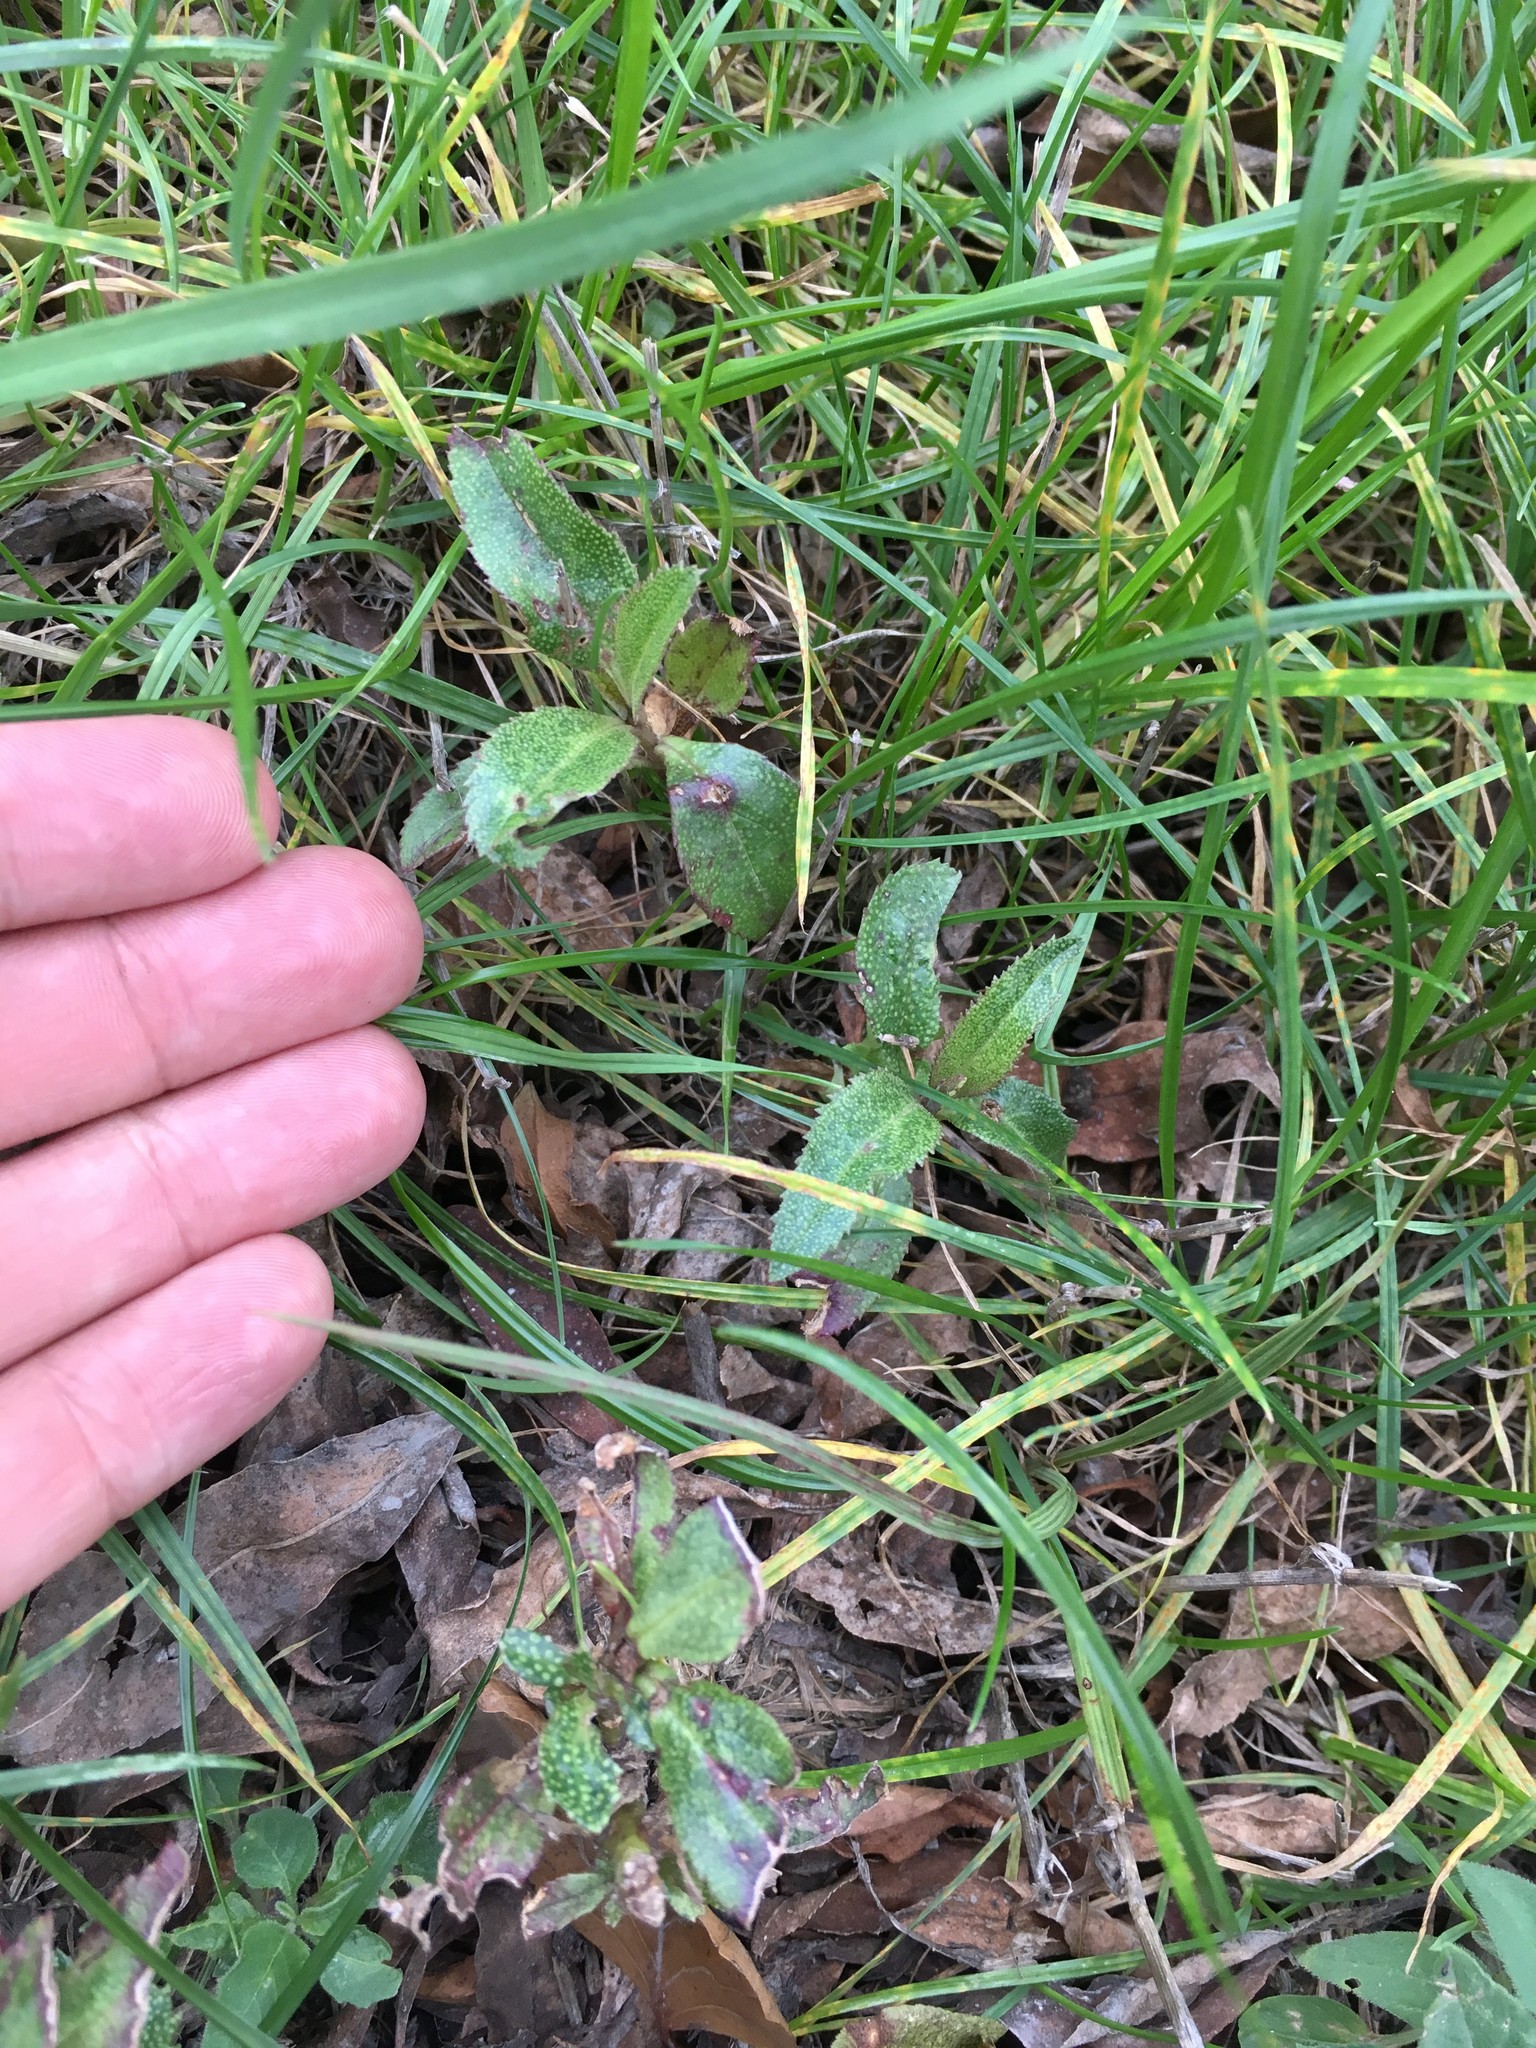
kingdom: Plantae
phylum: Tracheophyta
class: Magnoliopsida
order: Lamiales
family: Scrophulariaceae
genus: Myoporum
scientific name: Myoporum laetum
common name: Ngaio tree
